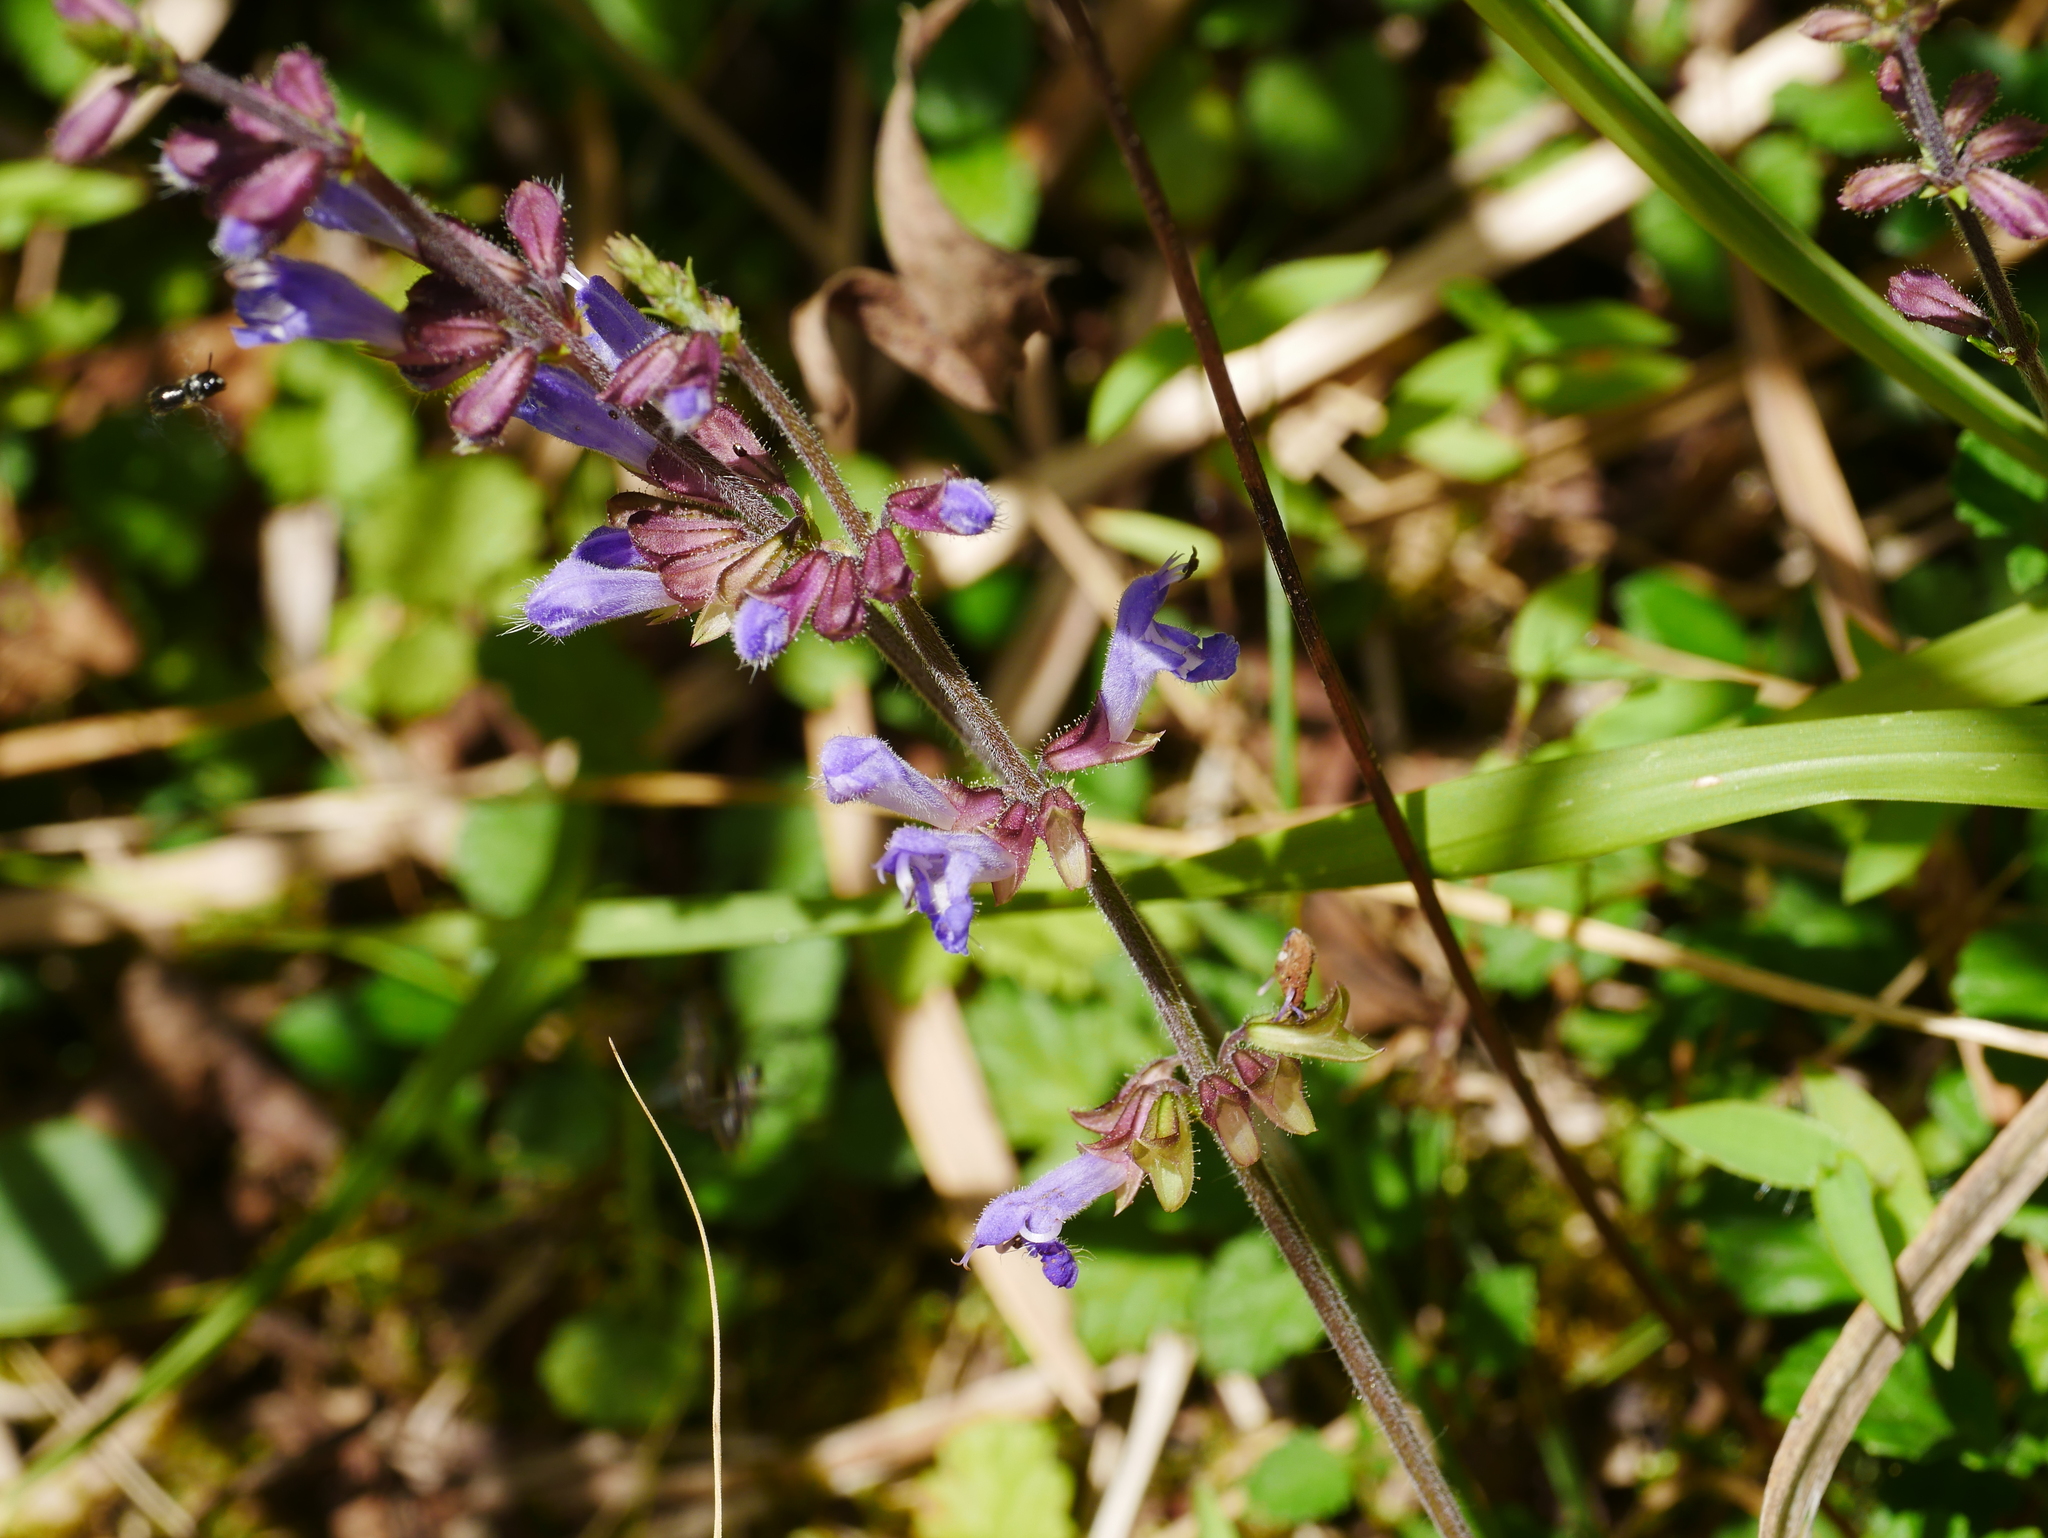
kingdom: Plantae
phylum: Tracheophyta
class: Magnoliopsida
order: Lamiales
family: Lamiaceae
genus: Salvia
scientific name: Salvia japonica
